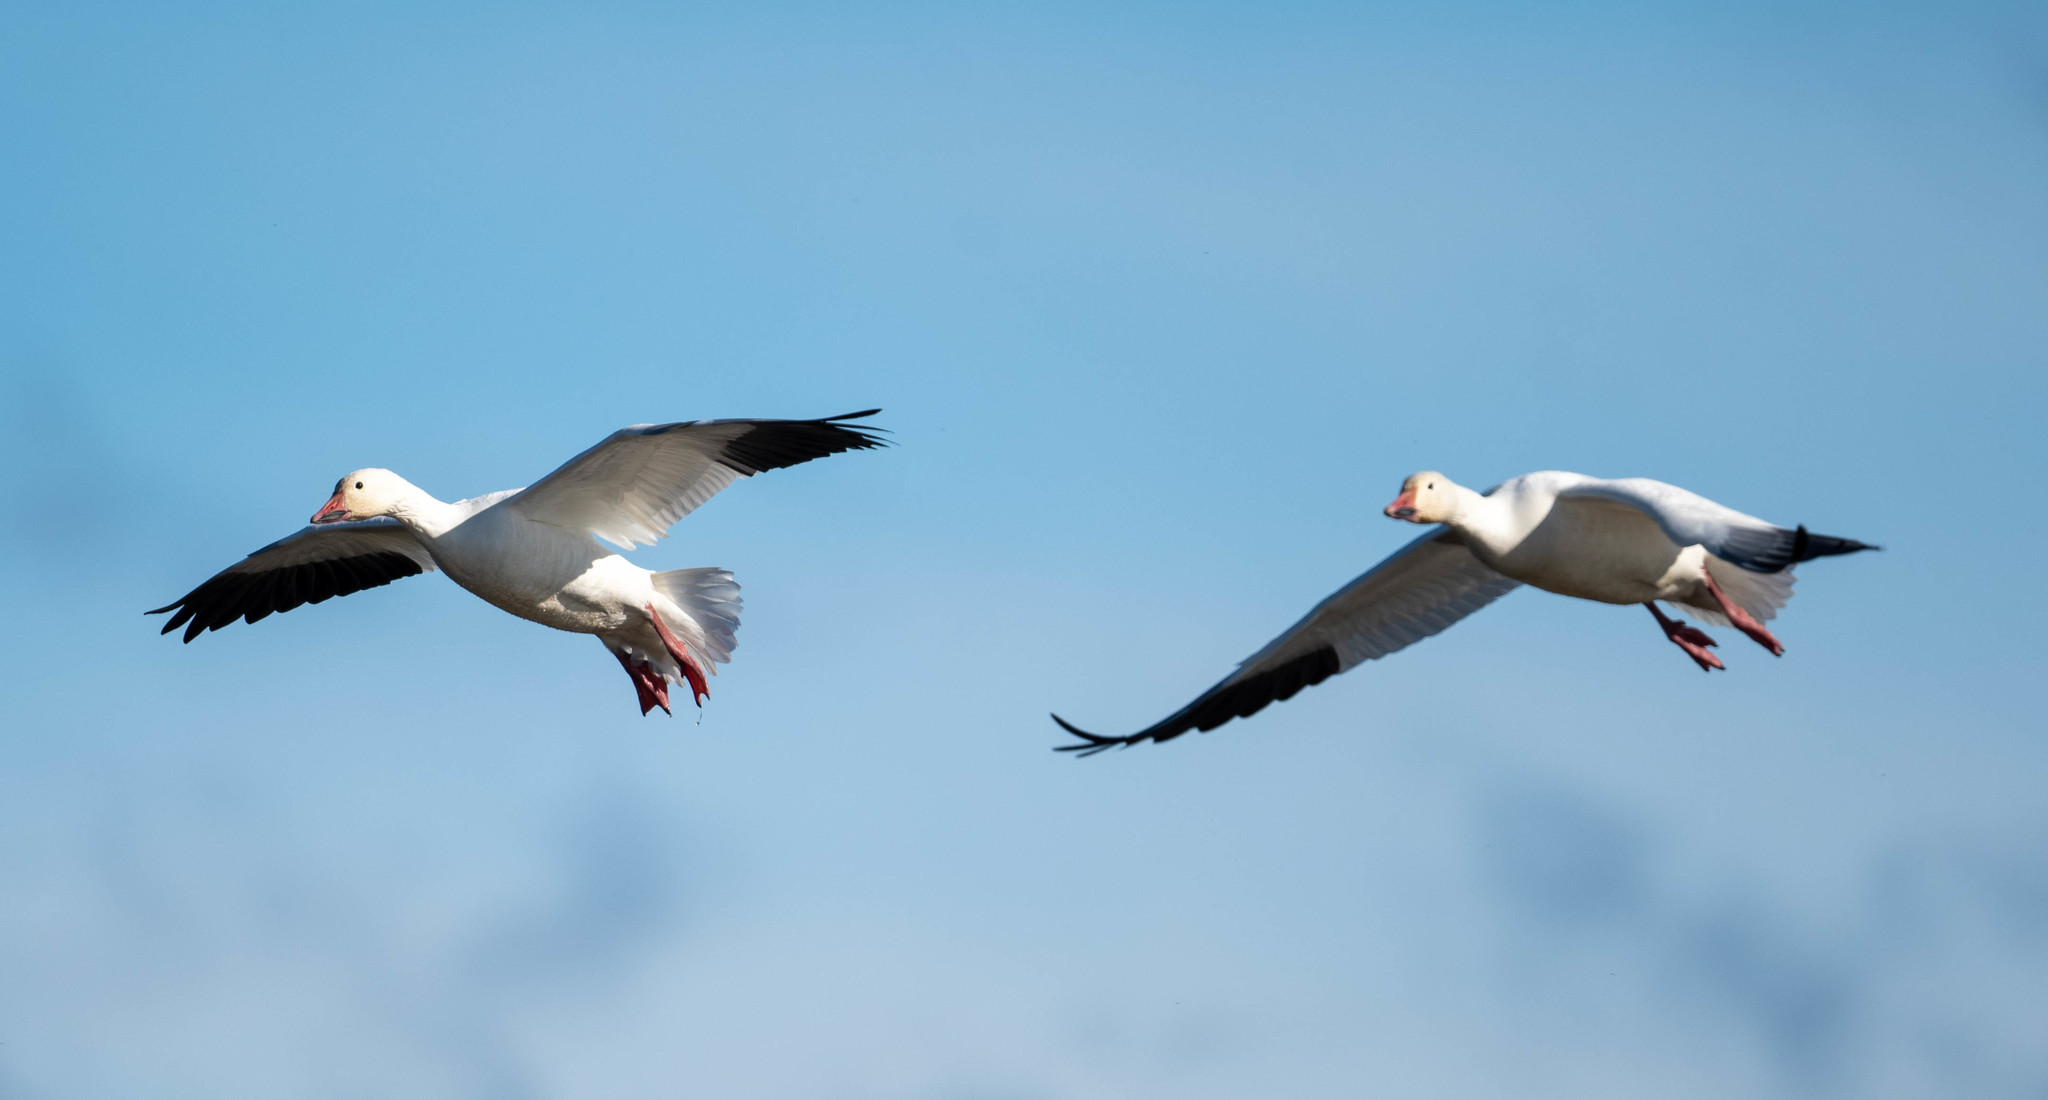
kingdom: Animalia
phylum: Chordata
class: Aves
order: Anseriformes
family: Anatidae
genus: Anser
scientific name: Anser caerulescens
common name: Snow goose
